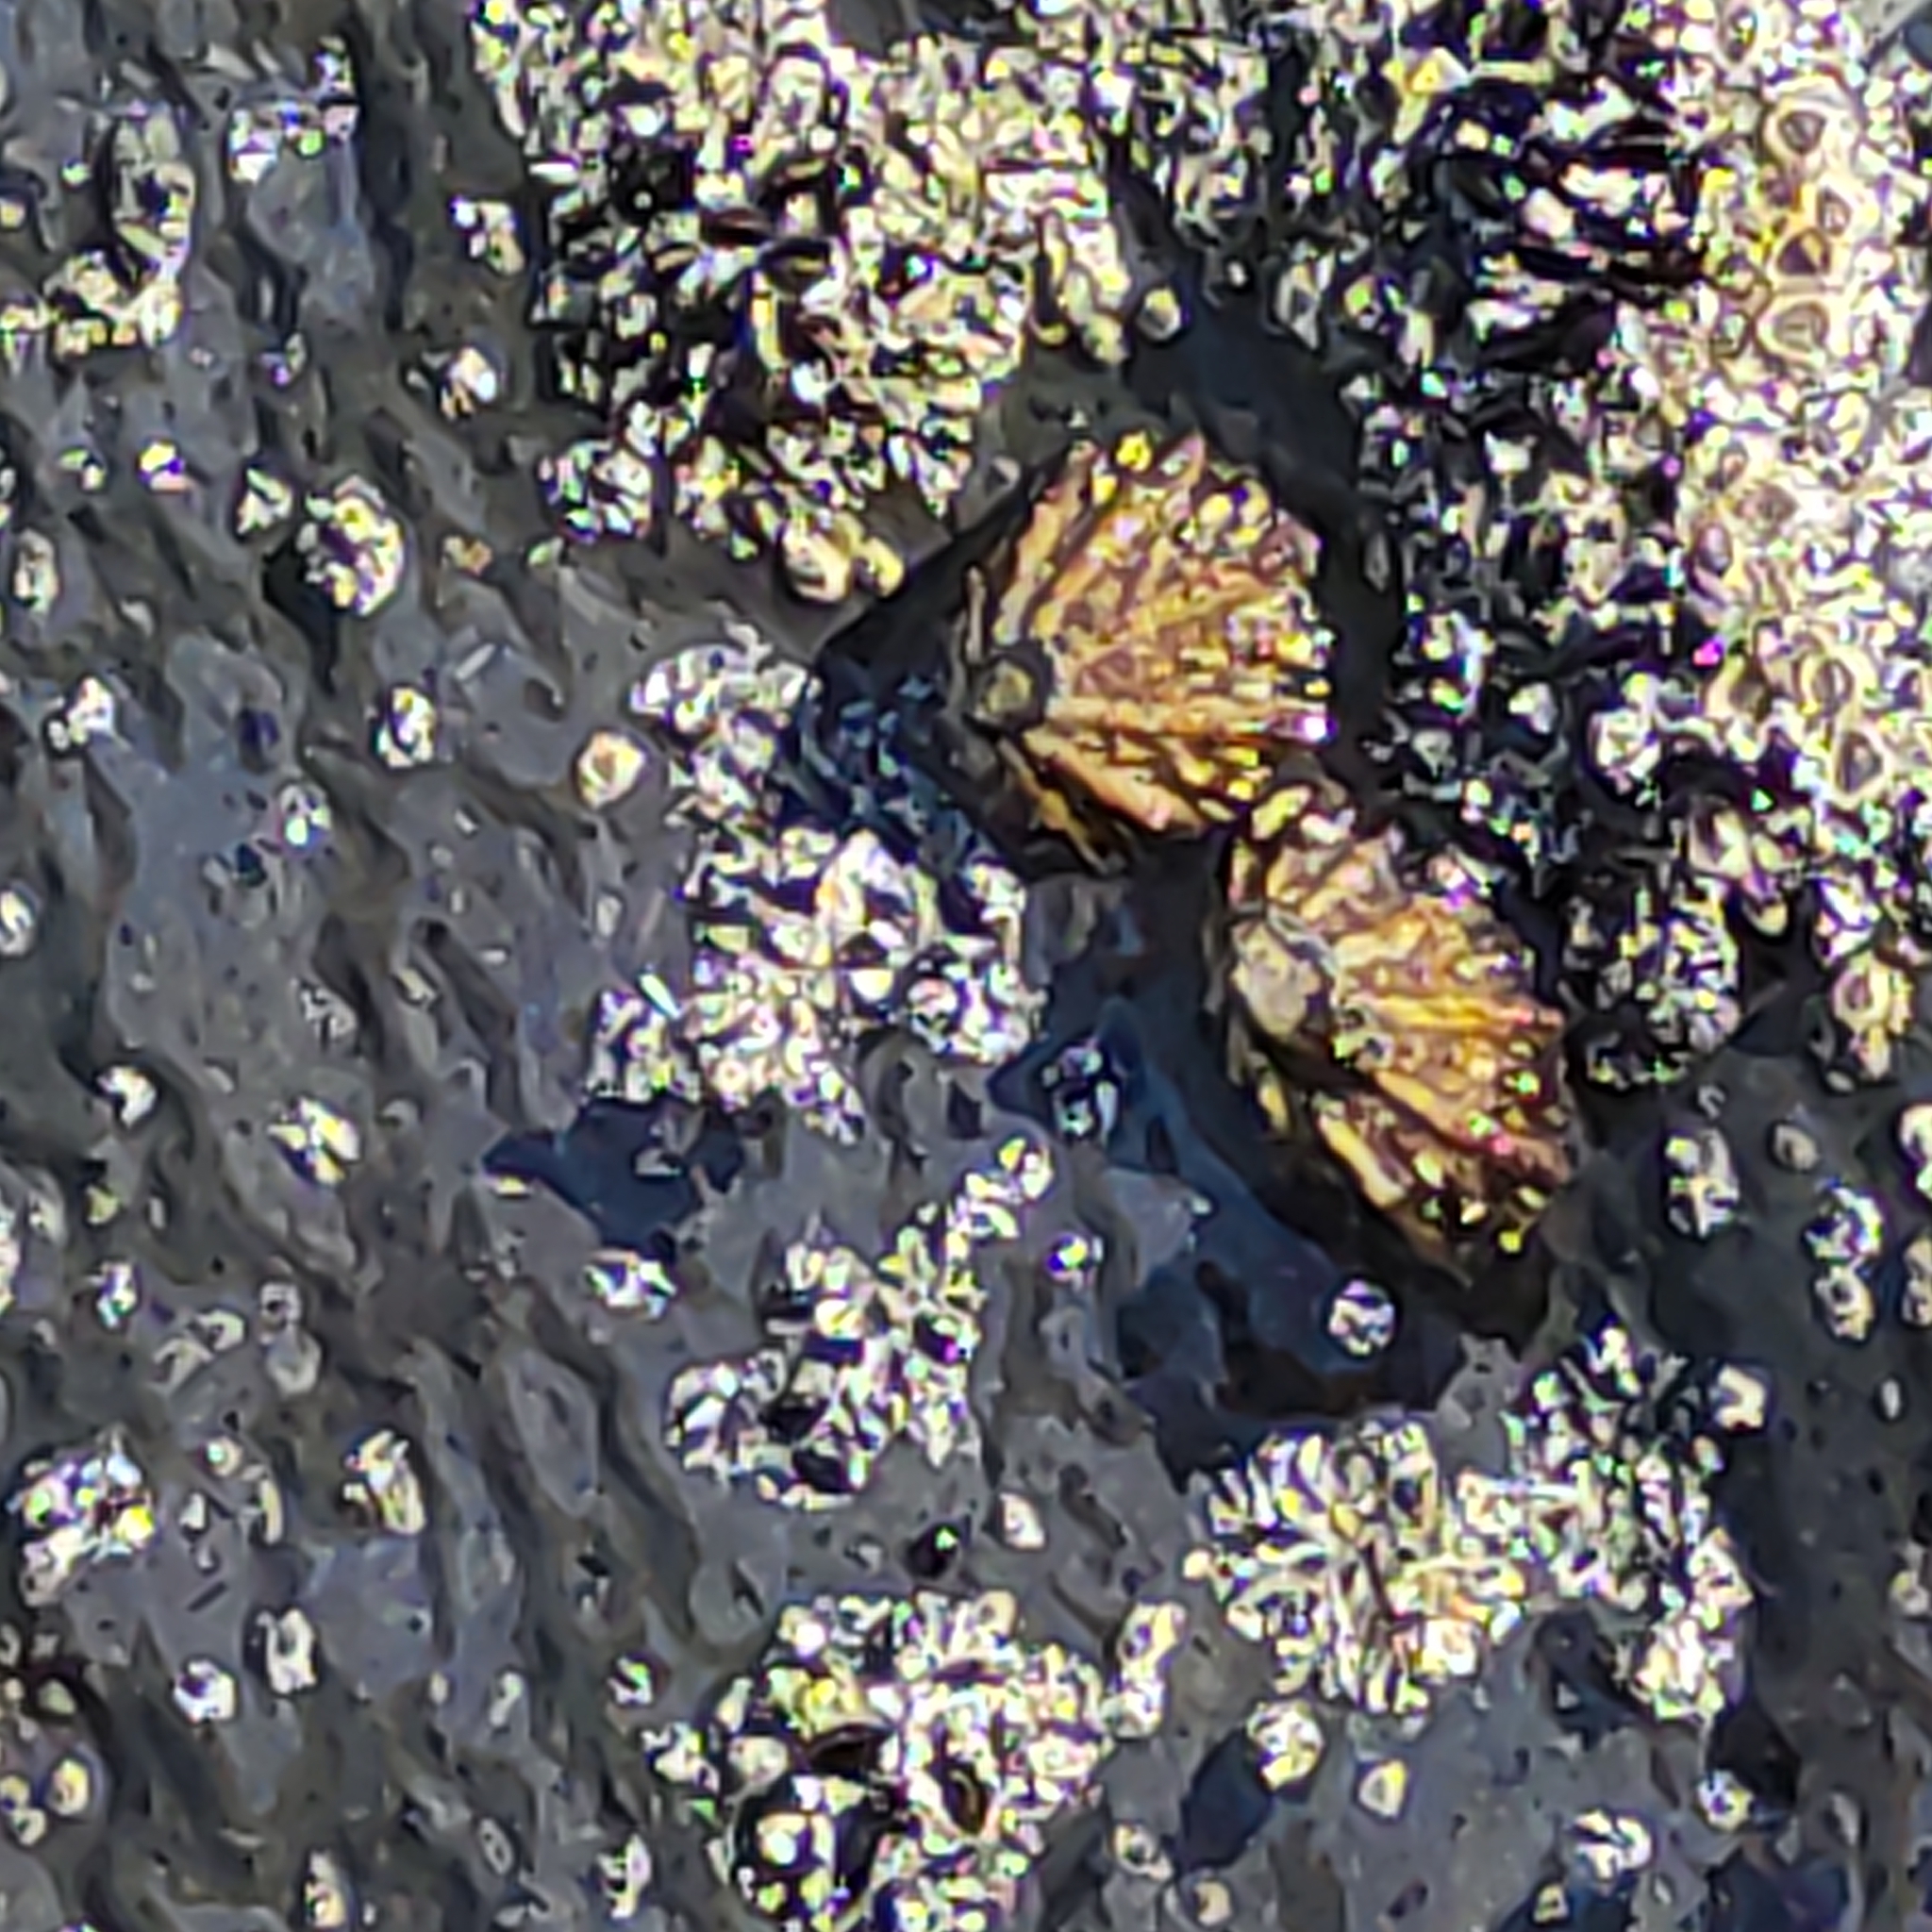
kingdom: Animalia
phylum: Mollusca
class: Gastropoda
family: Nacellidae
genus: Cellana
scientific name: Cellana ornata
